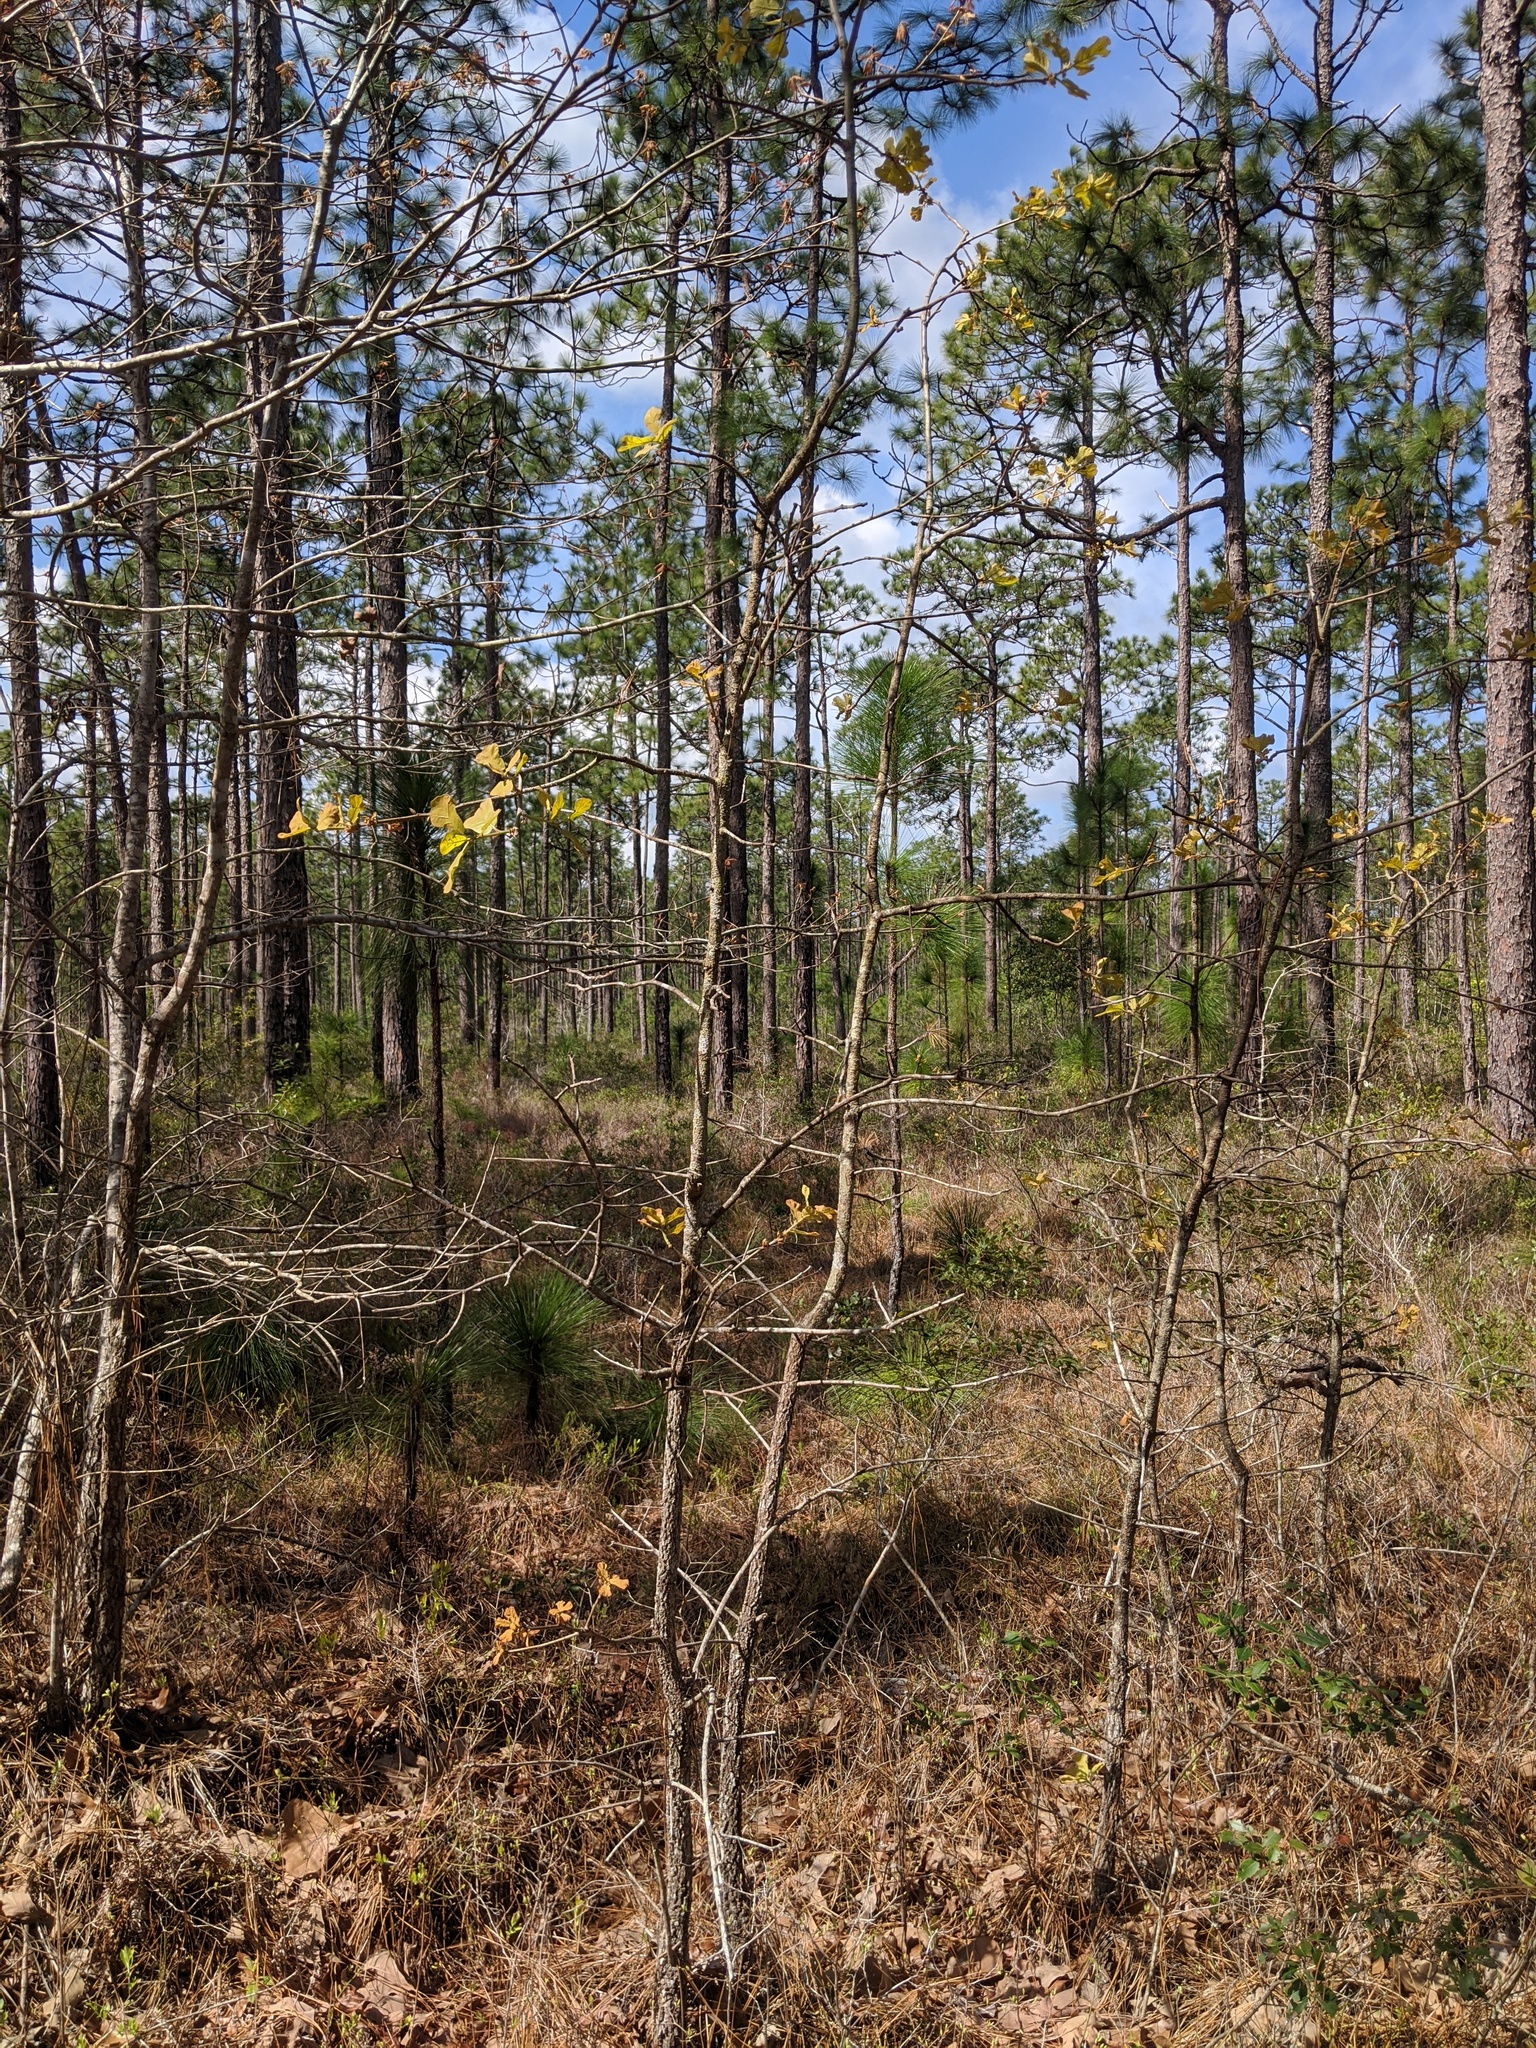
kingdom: Plantae
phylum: Tracheophyta
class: Magnoliopsida
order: Fagales
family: Fagaceae
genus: Quercus
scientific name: Quercus marilandica
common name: Blackjack oak
